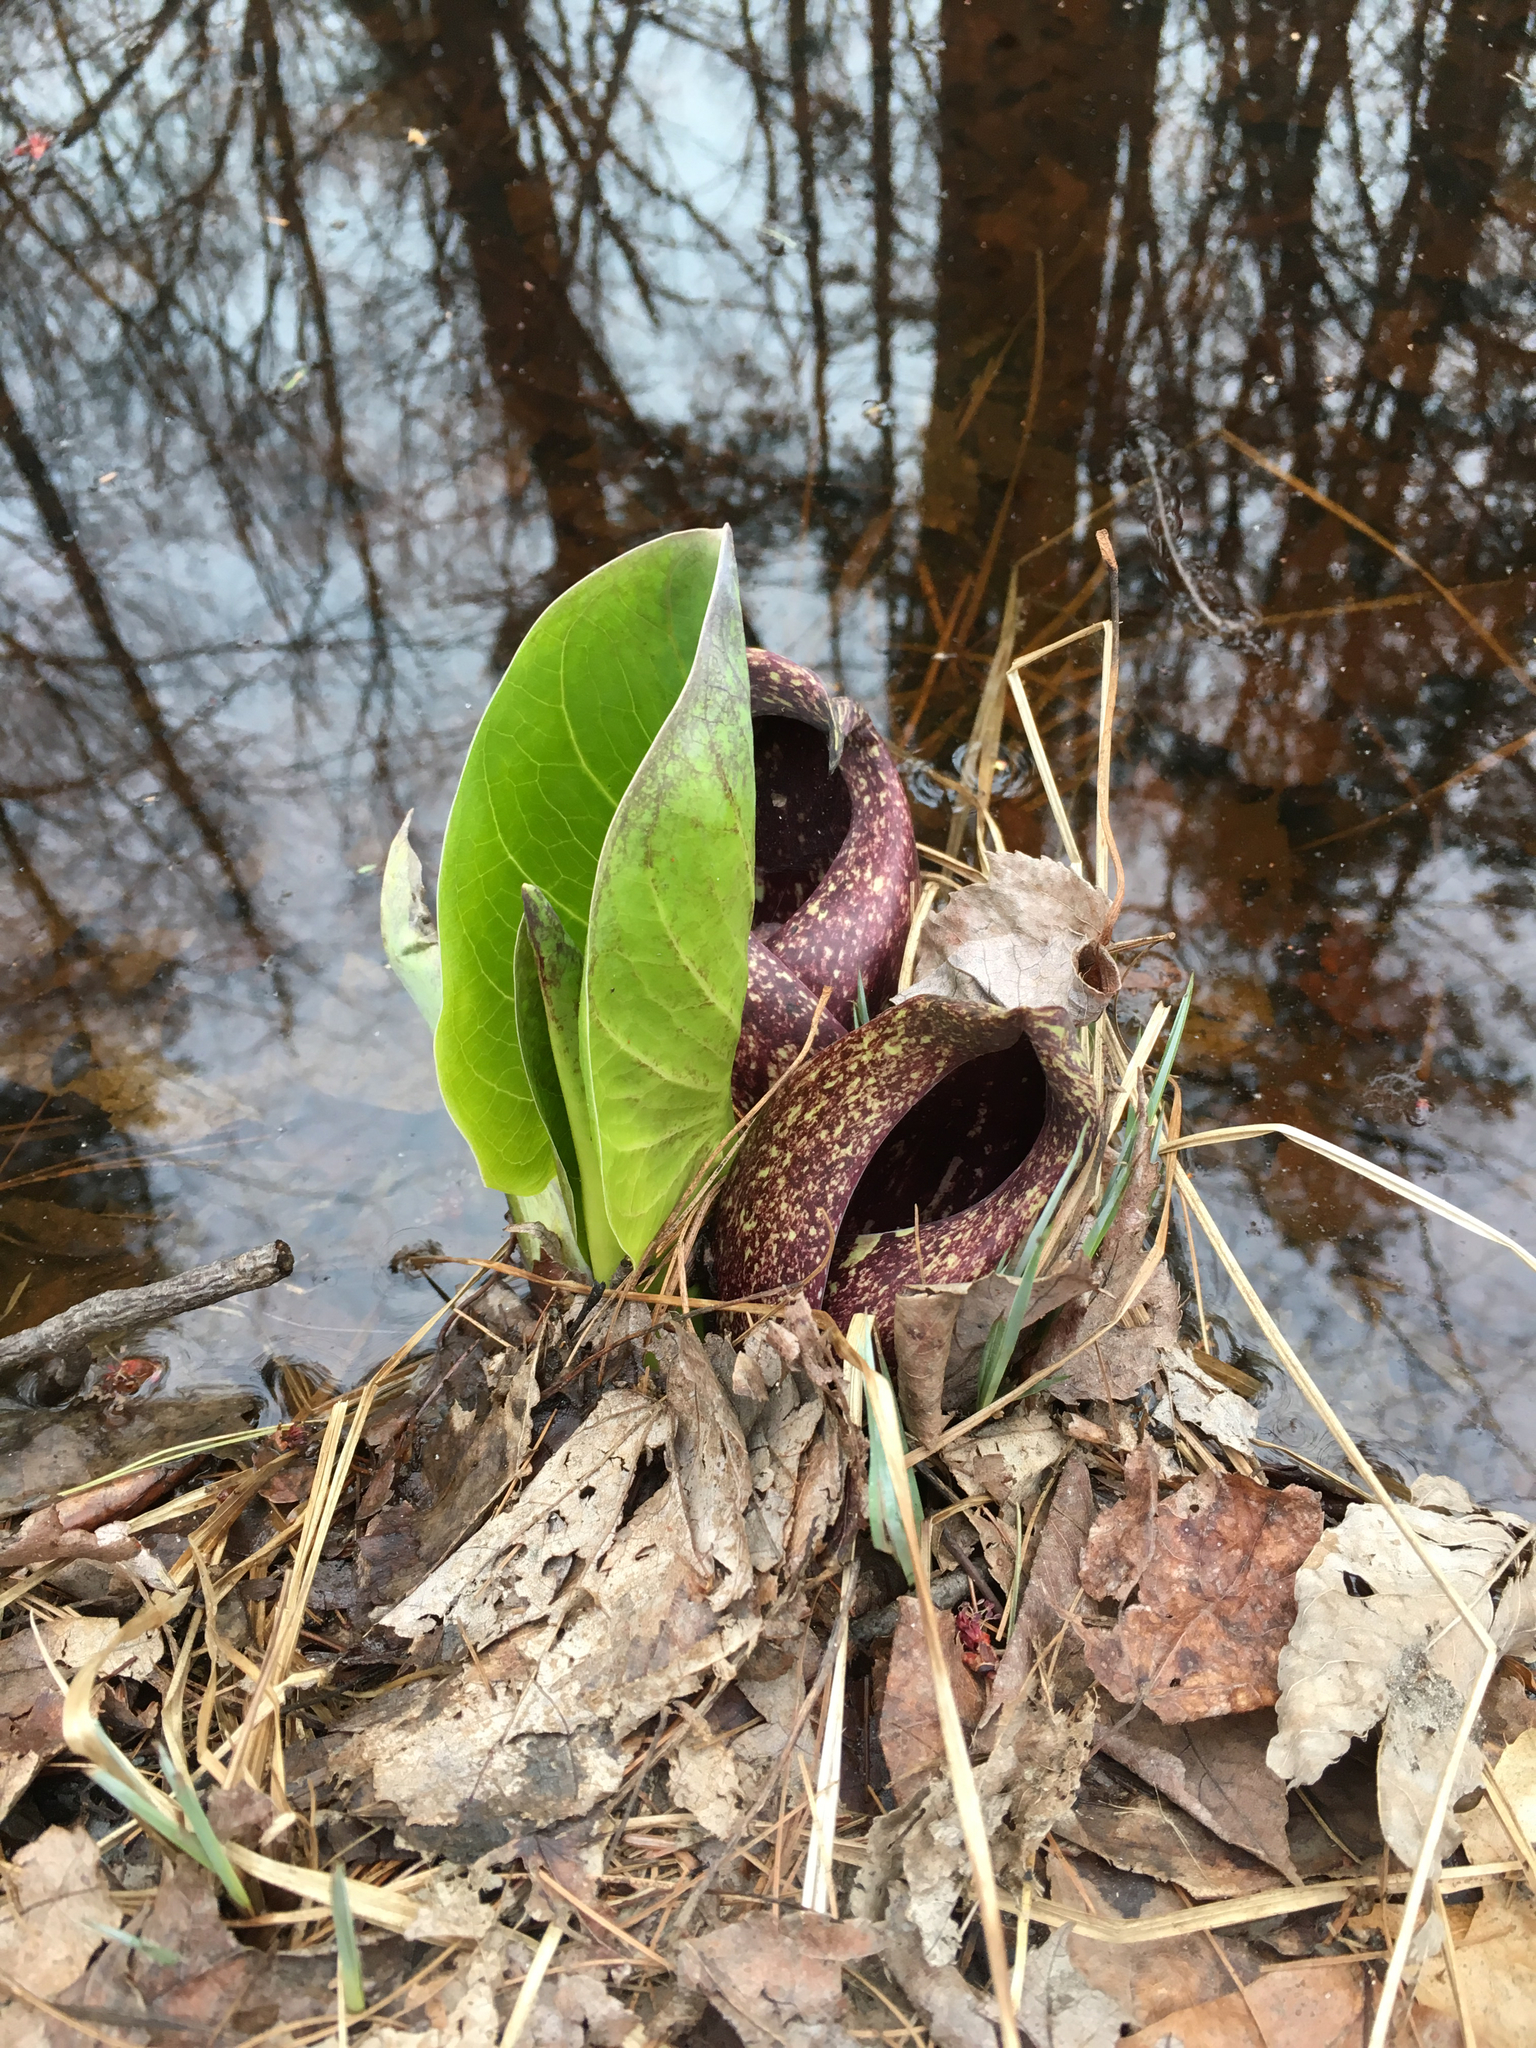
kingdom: Plantae
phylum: Tracheophyta
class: Liliopsida
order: Alismatales
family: Araceae
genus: Symplocarpus
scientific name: Symplocarpus foetidus
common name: Eastern skunk cabbage
